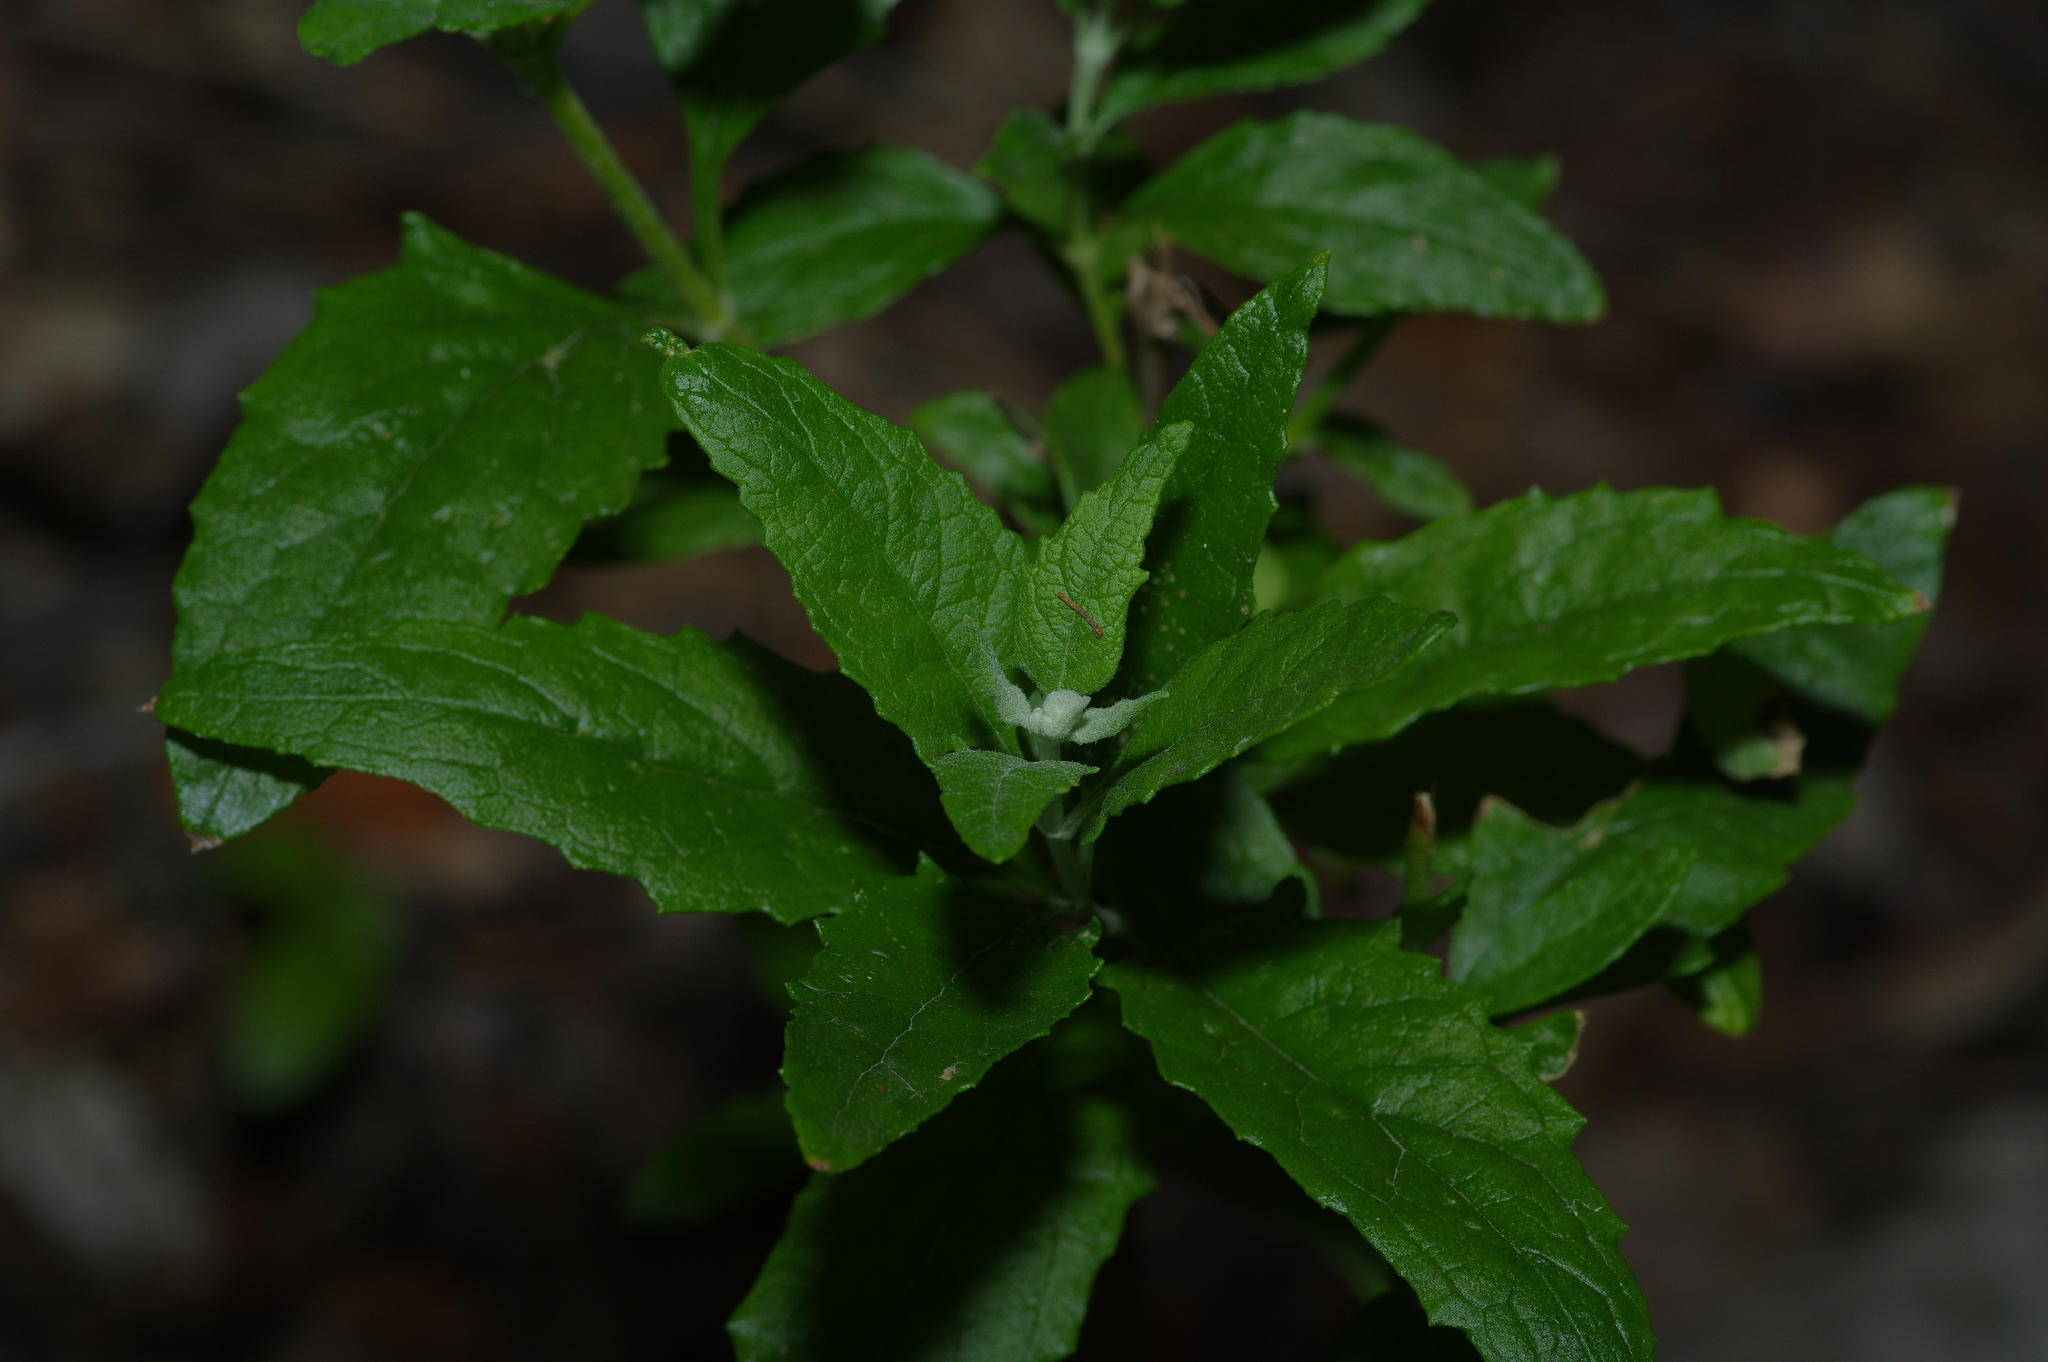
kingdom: Plantae
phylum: Tracheophyta
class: Magnoliopsida
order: Lamiales
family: Scrophulariaceae
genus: Buddleja
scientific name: Buddleja racemosa
